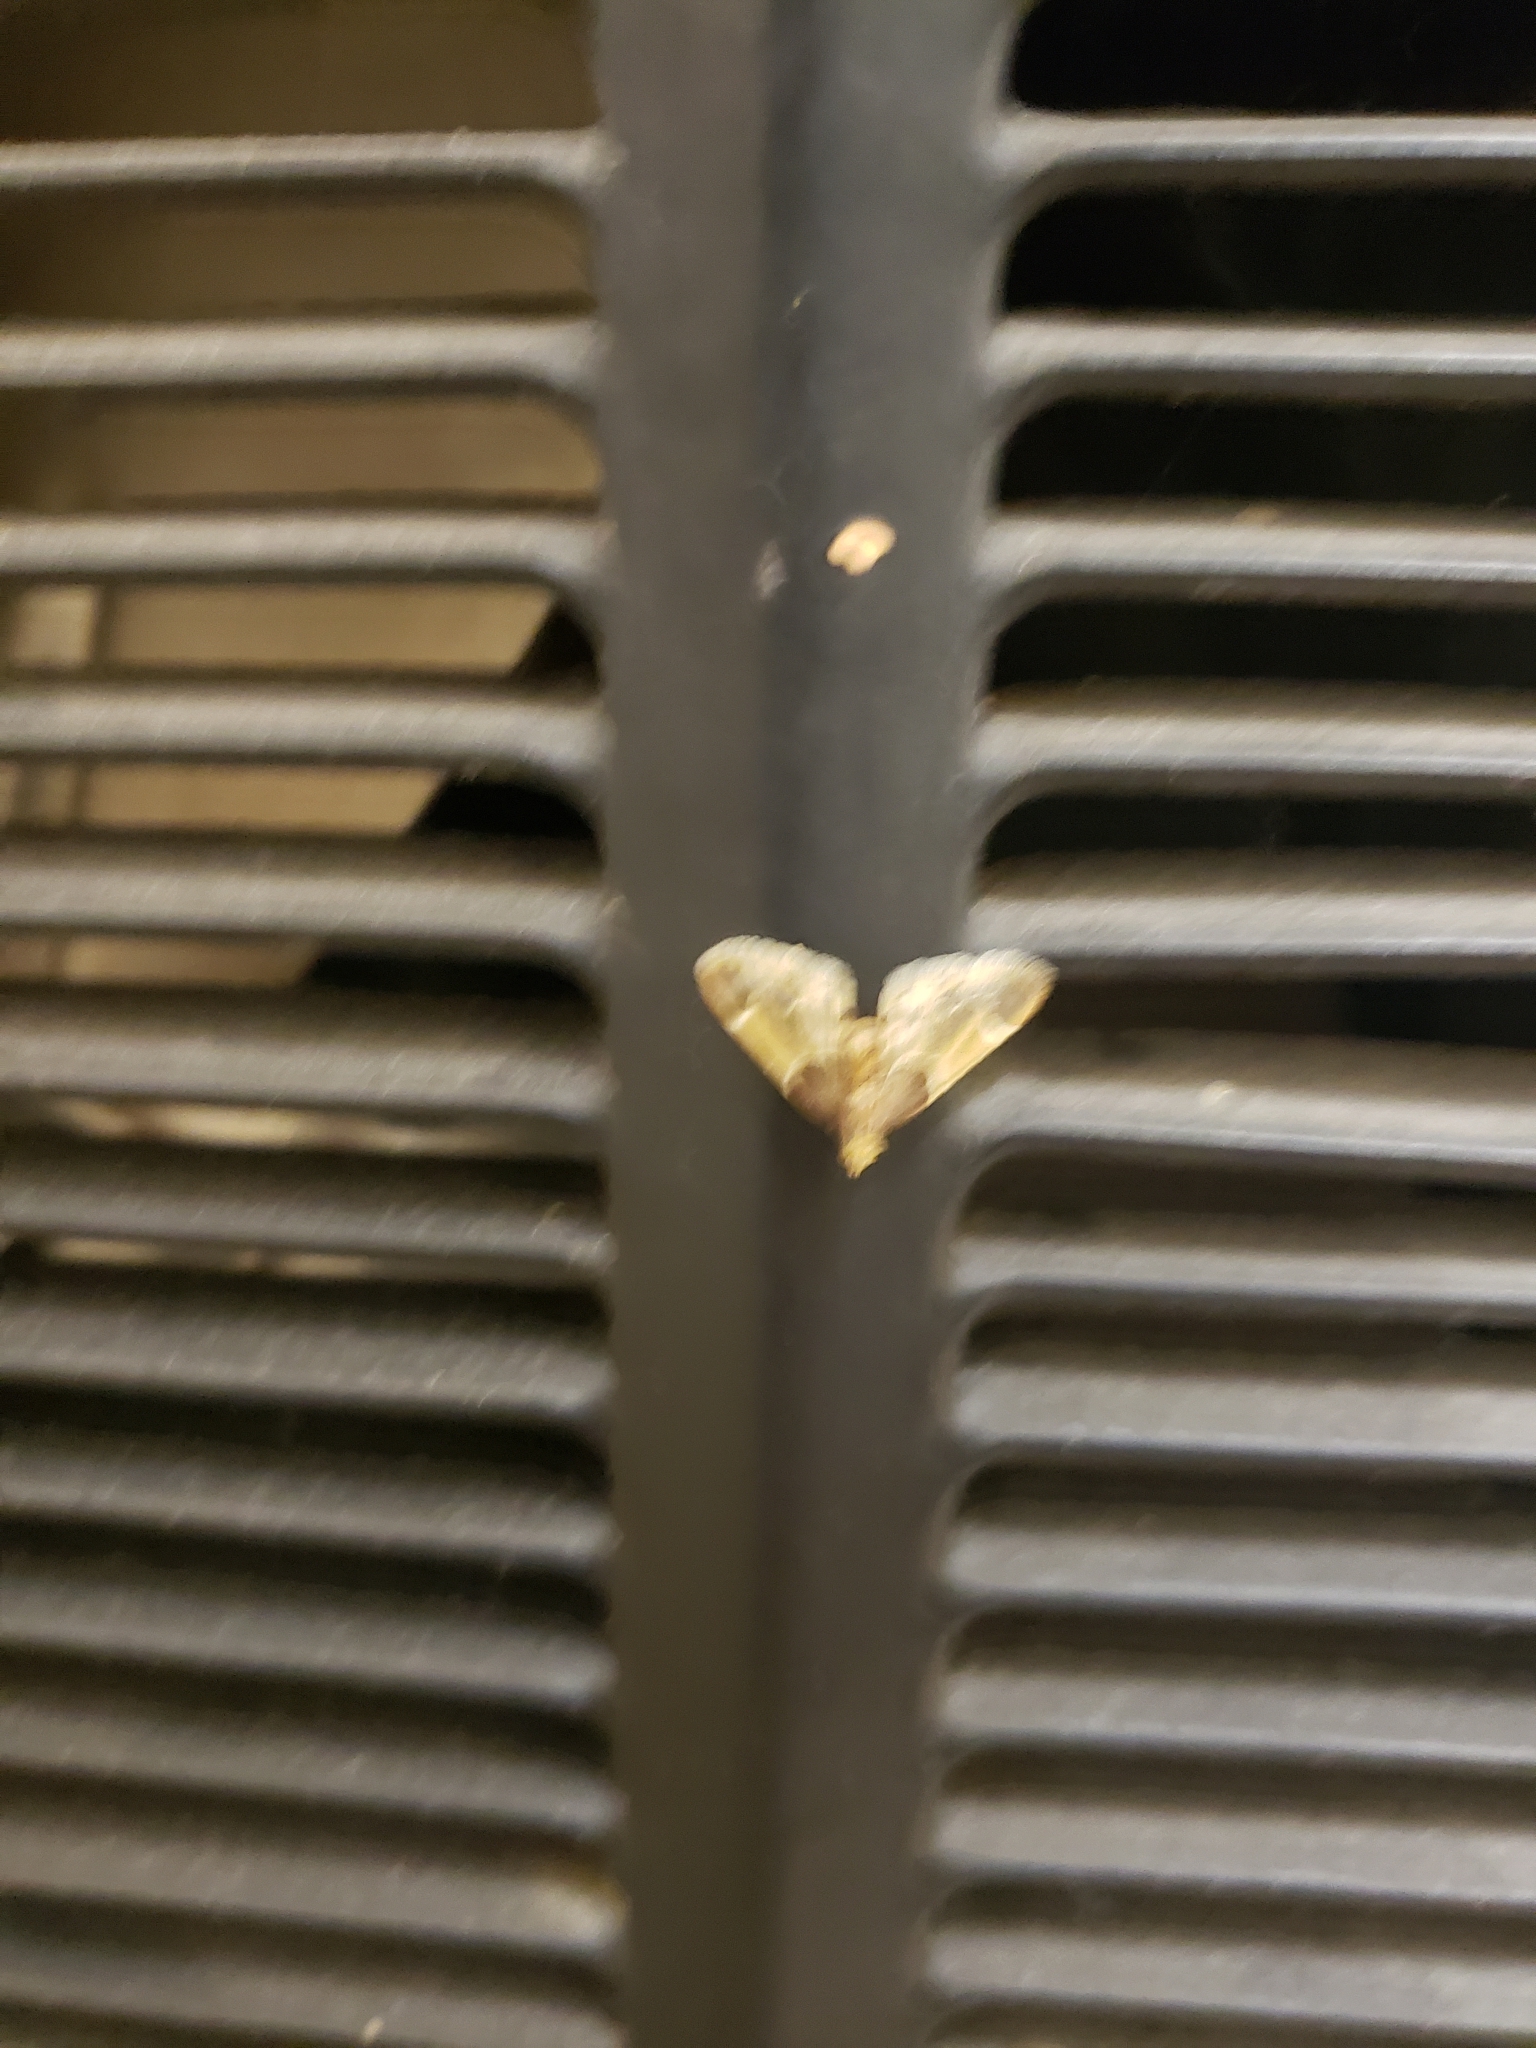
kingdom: Animalia
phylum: Arthropoda
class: Insecta
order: Lepidoptera
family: Pyralidae
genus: Pyralis
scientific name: Pyralis farinalis
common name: Meal moth
